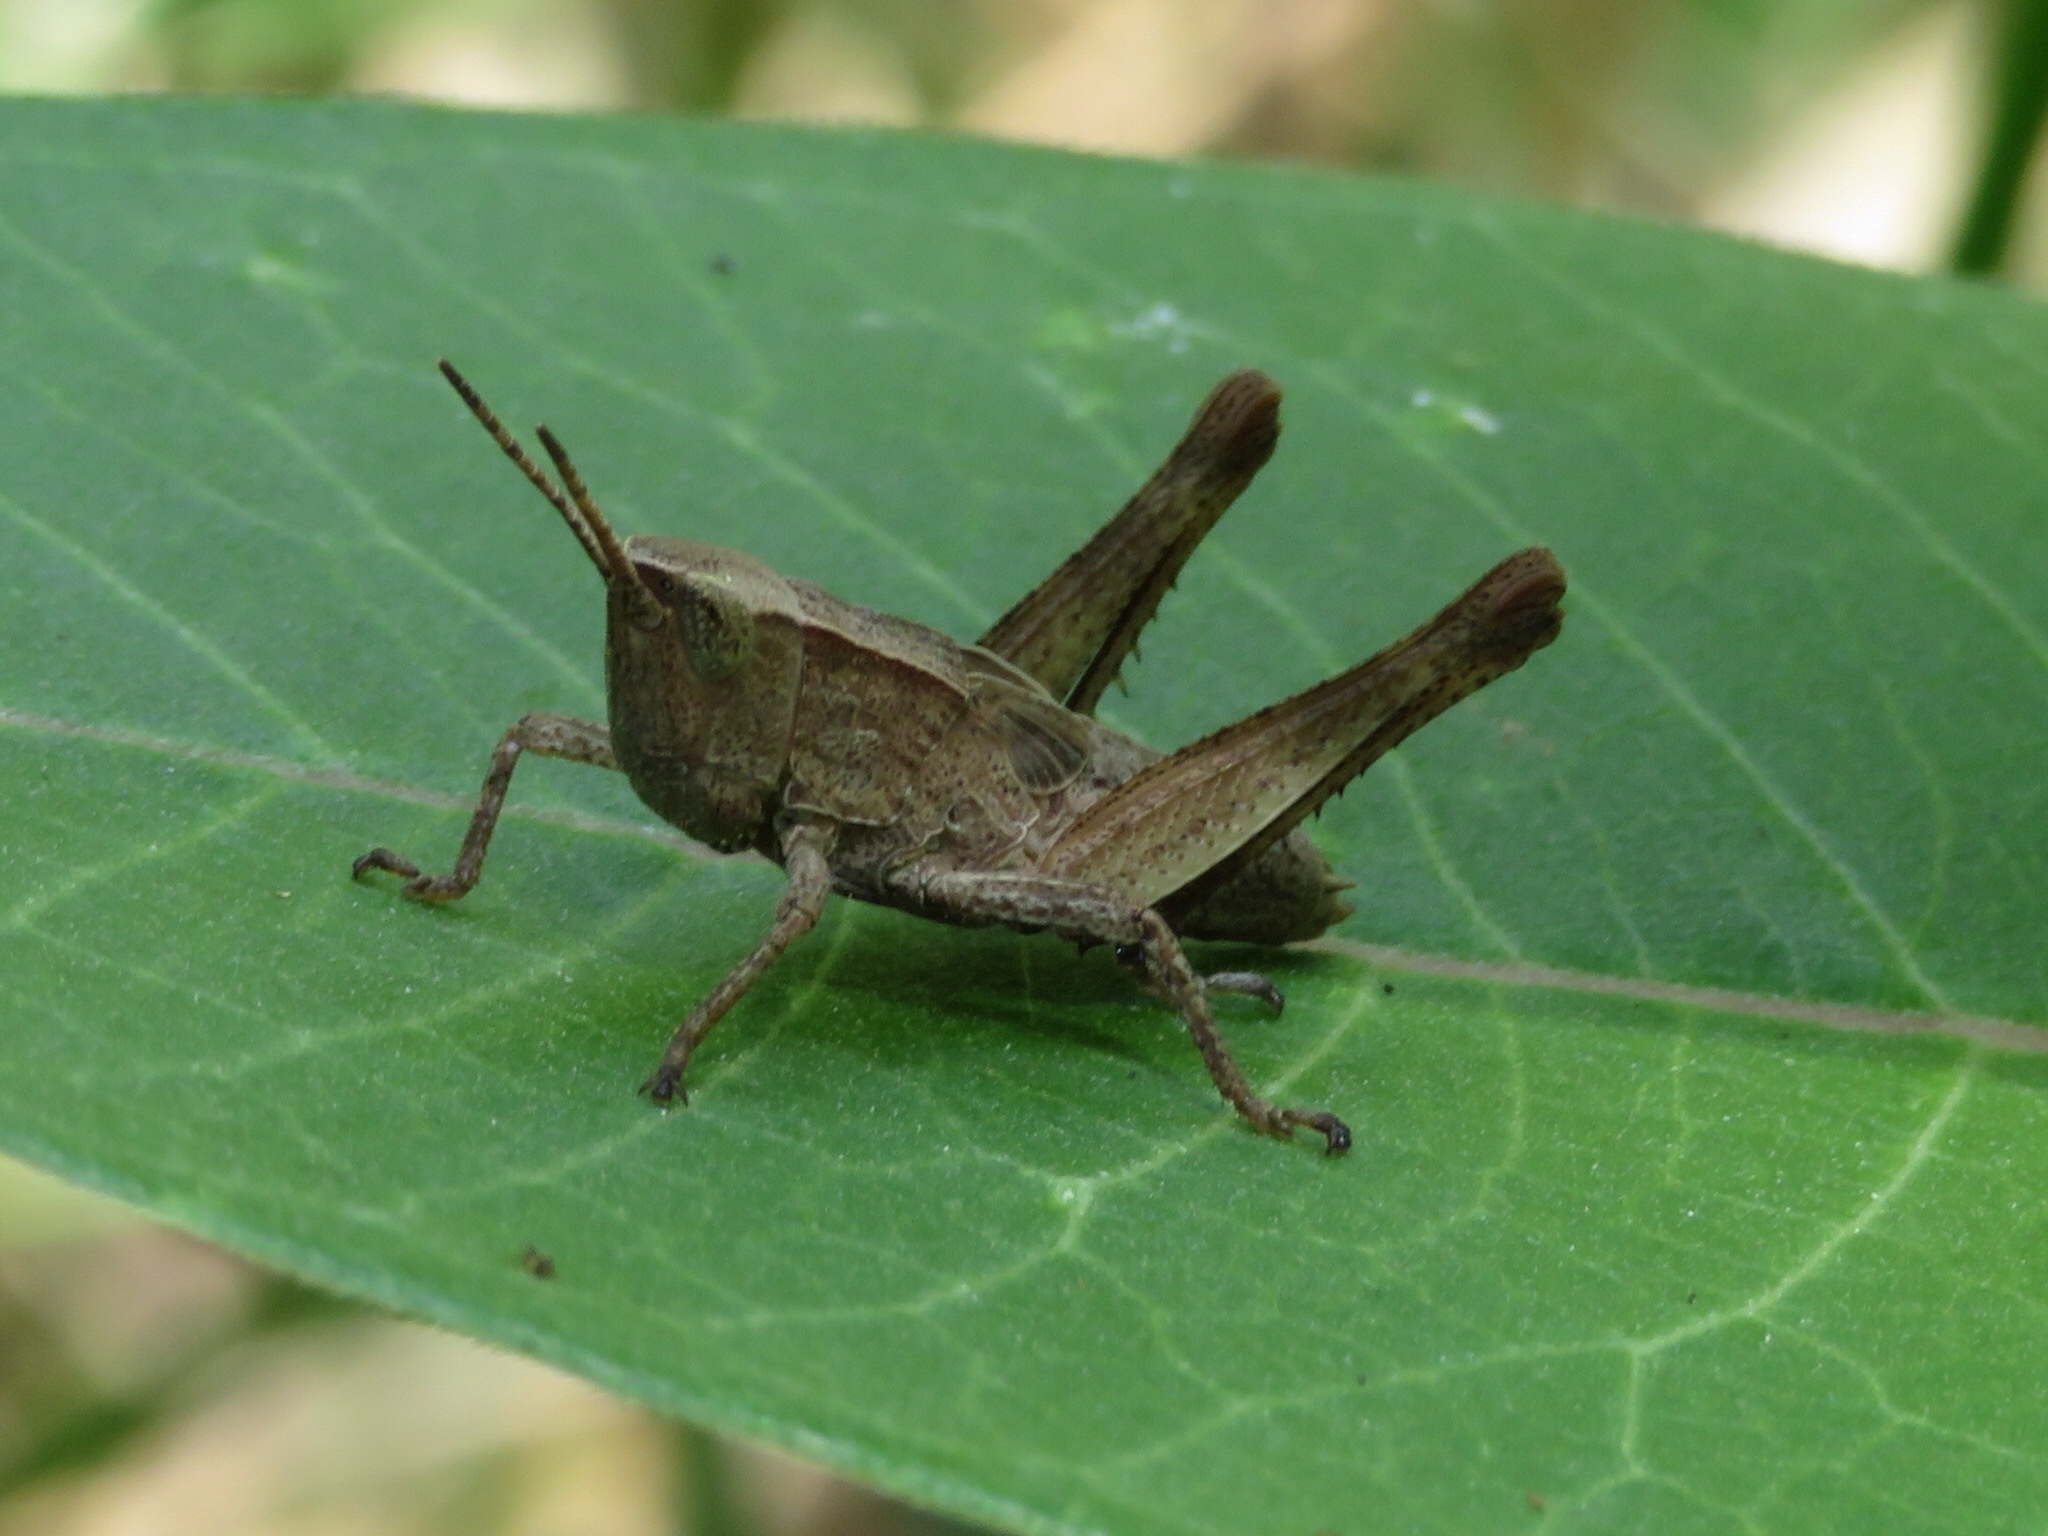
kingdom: Animalia
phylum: Arthropoda
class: Insecta
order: Orthoptera
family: Acrididae
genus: Dichromorpha
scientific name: Dichromorpha viridis
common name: Short-winged green grasshopper
